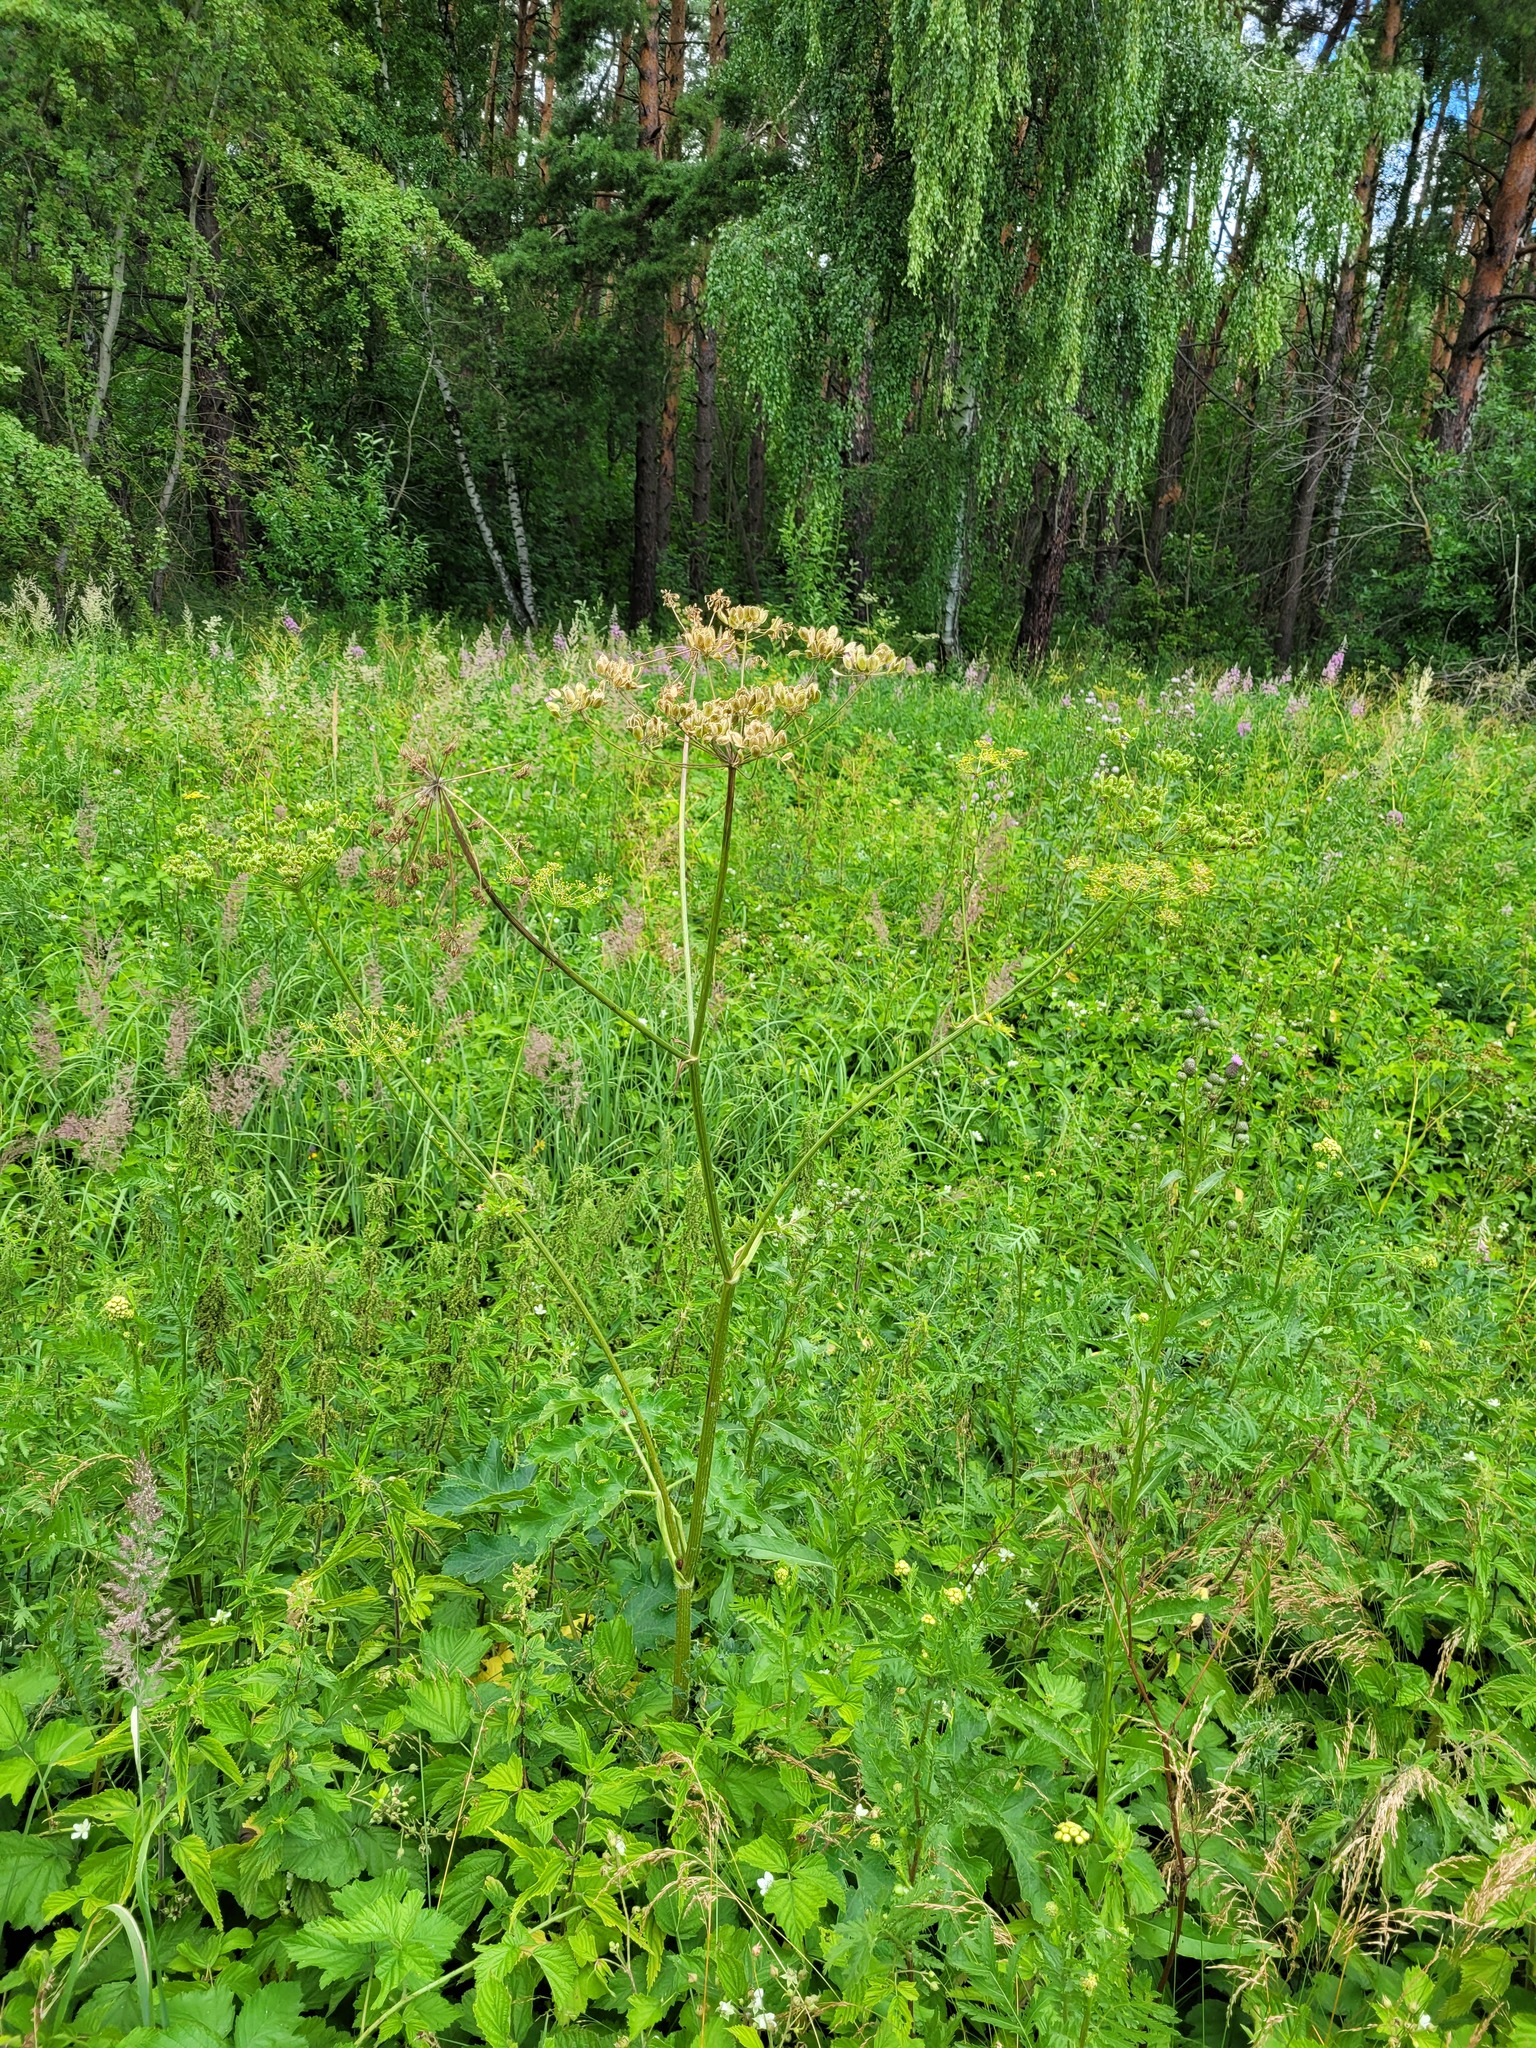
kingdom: Plantae
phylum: Tracheophyta
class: Magnoliopsida
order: Apiales
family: Apiaceae
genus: Heracleum
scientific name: Heracleum sphondylium
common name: Hogweed
